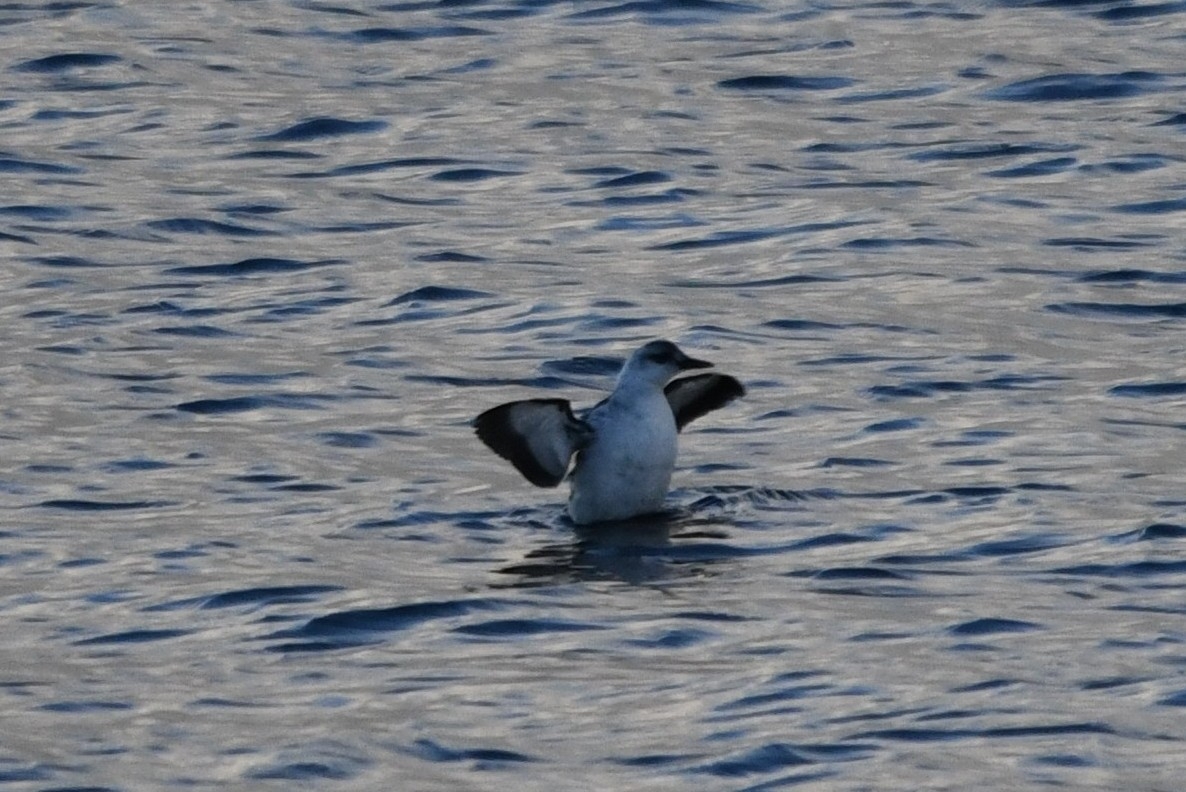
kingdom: Animalia
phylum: Chordata
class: Aves
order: Charadriiformes
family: Alcidae
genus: Cepphus
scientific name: Cepphus grylle
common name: Black guillemot
